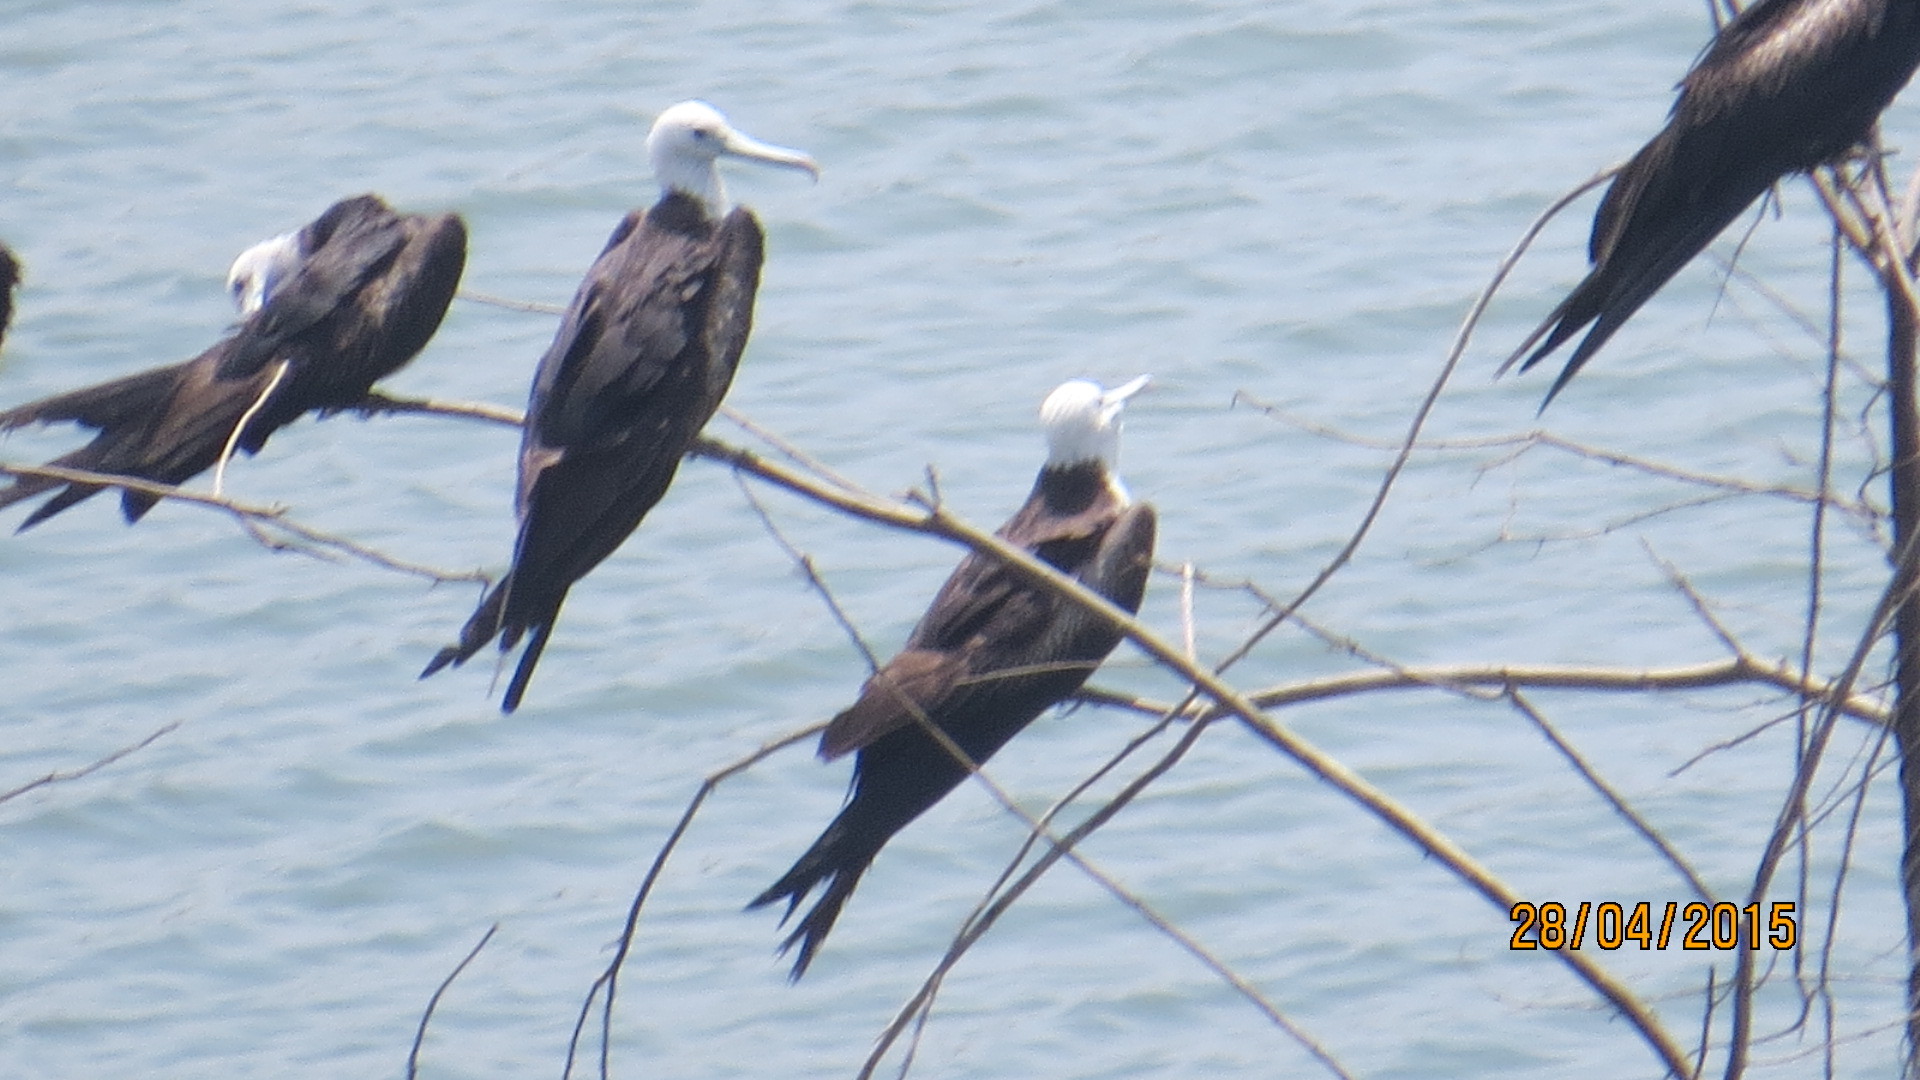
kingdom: Animalia
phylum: Chordata
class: Aves
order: Suliformes
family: Fregatidae
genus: Fregata
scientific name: Fregata magnificens
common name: Magnificent frigatebird
